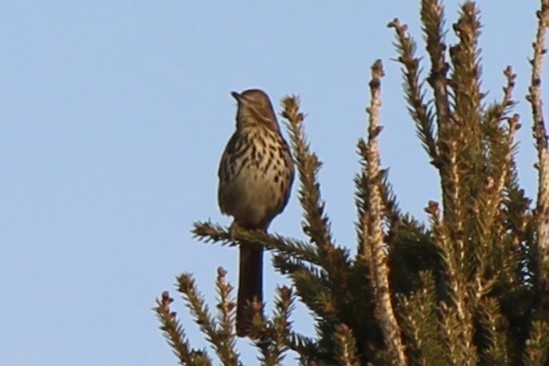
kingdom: Animalia
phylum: Chordata
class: Aves
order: Passeriformes
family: Mimidae
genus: Toxostoma
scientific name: Toxostoma rufum
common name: Brown thrasher
